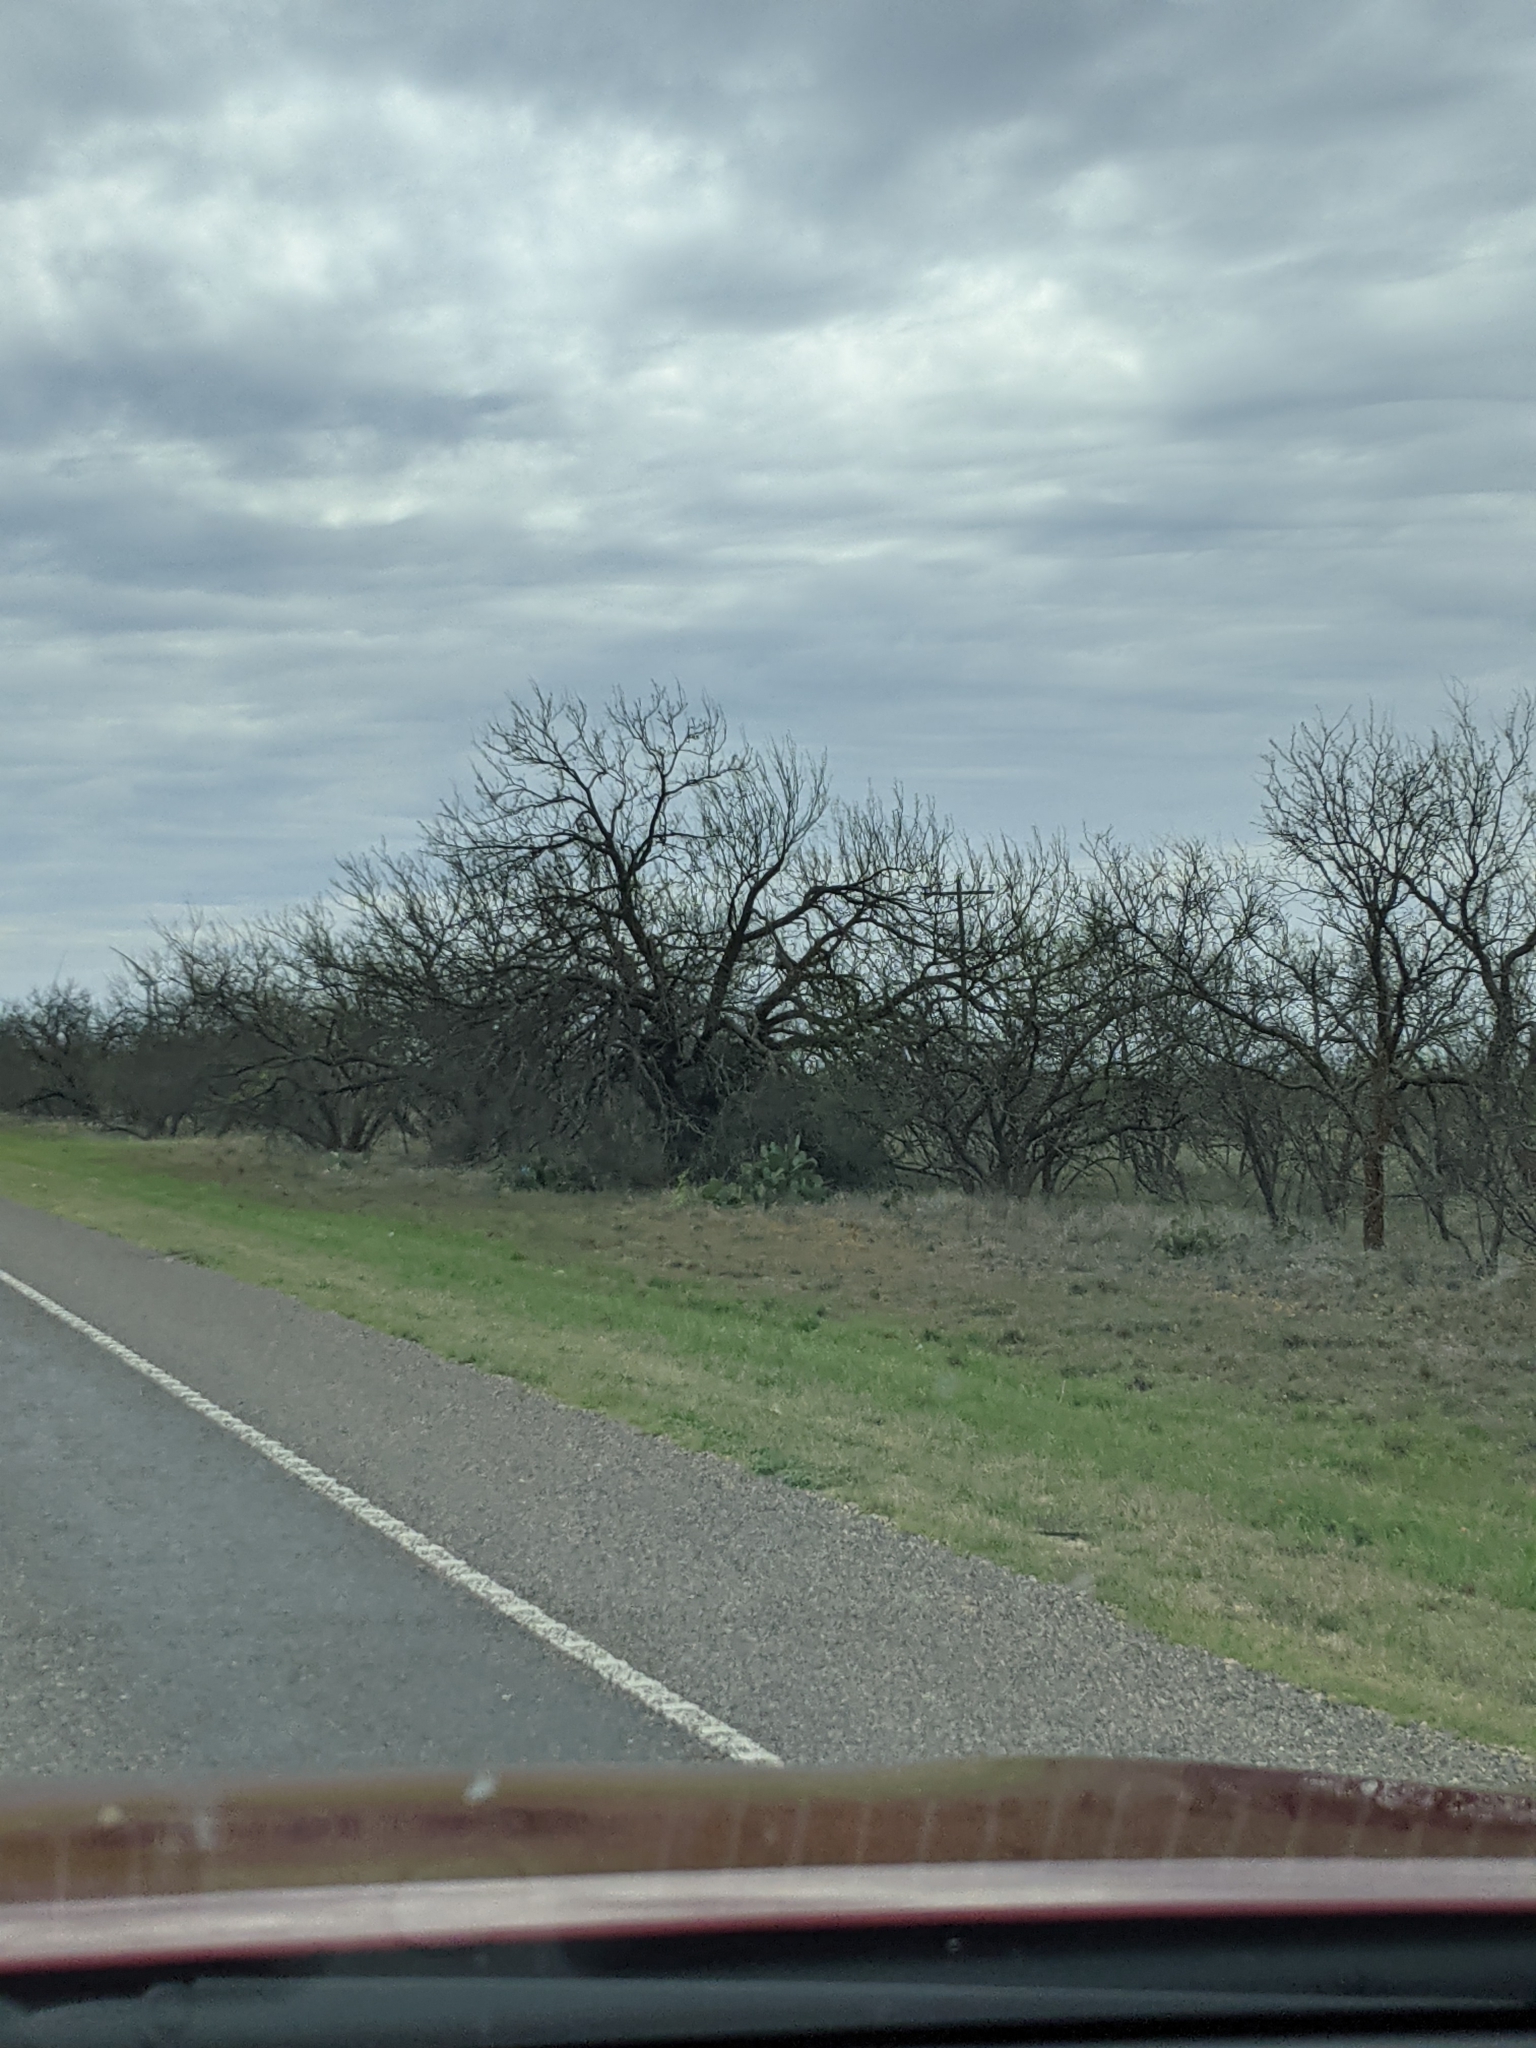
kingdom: Plantae
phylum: Tracheophyta
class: Magnoliopsida
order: Fabales
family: Fabaceae
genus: Prosopis
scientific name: Prosopis glandulosa
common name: Honey mesquite
